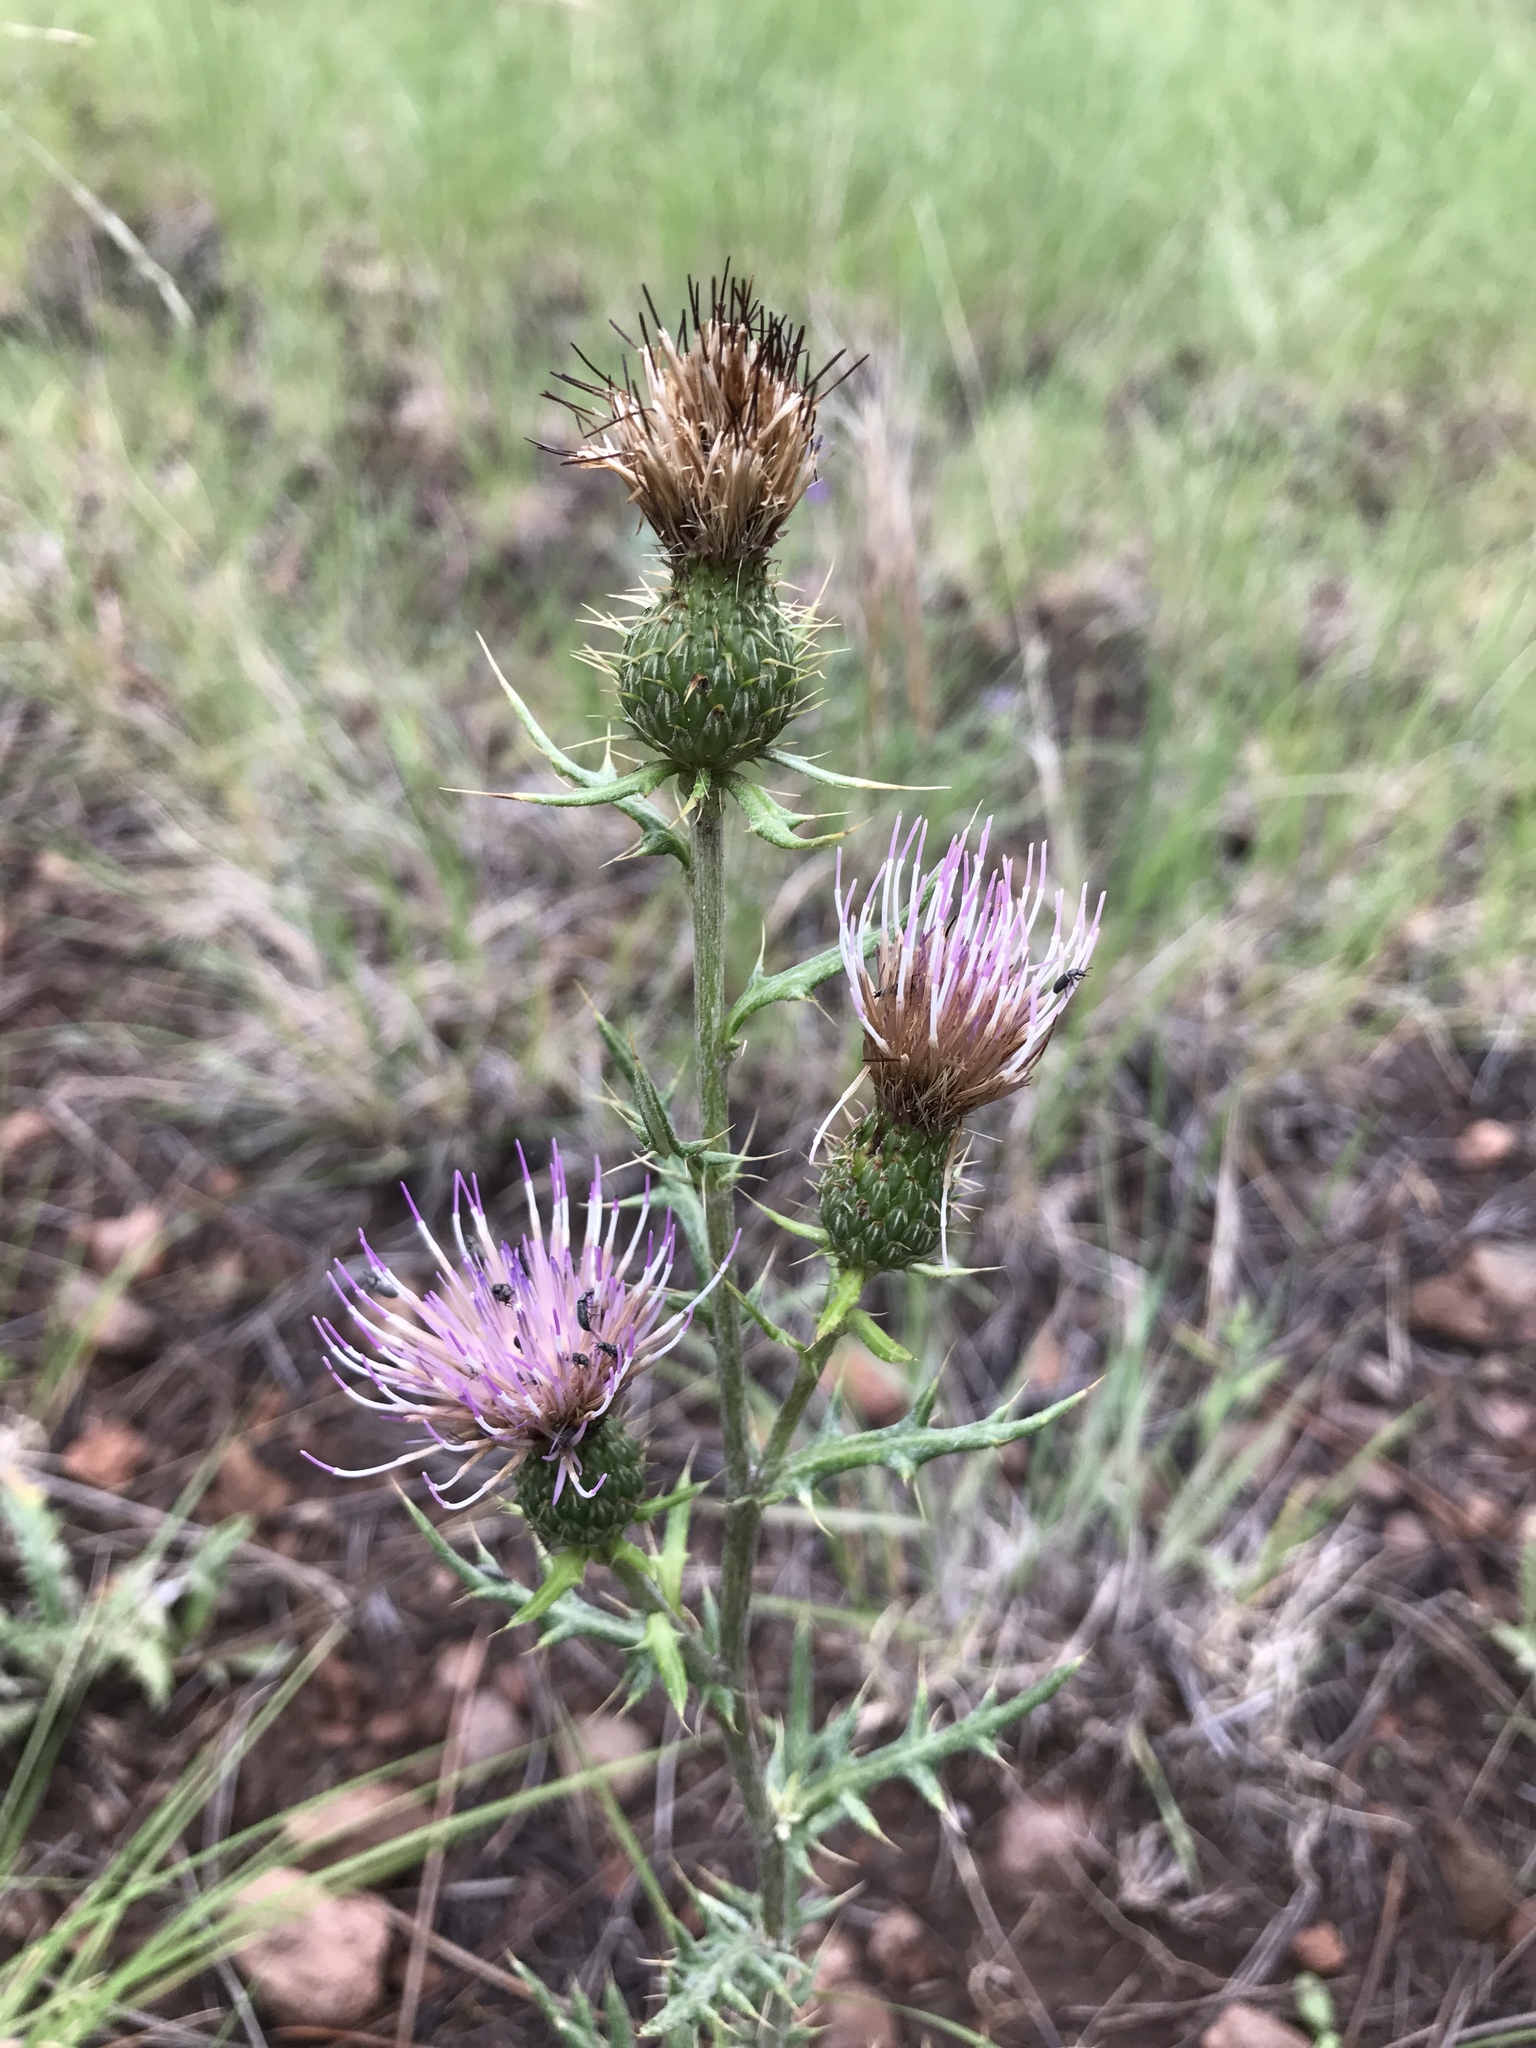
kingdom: Plantae
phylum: Tracheophyta
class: Magnoliopsida
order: Asterales
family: Asteraceae
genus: Cirsium
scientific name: Cirsium wheeleri
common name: Wheeler's thistle
